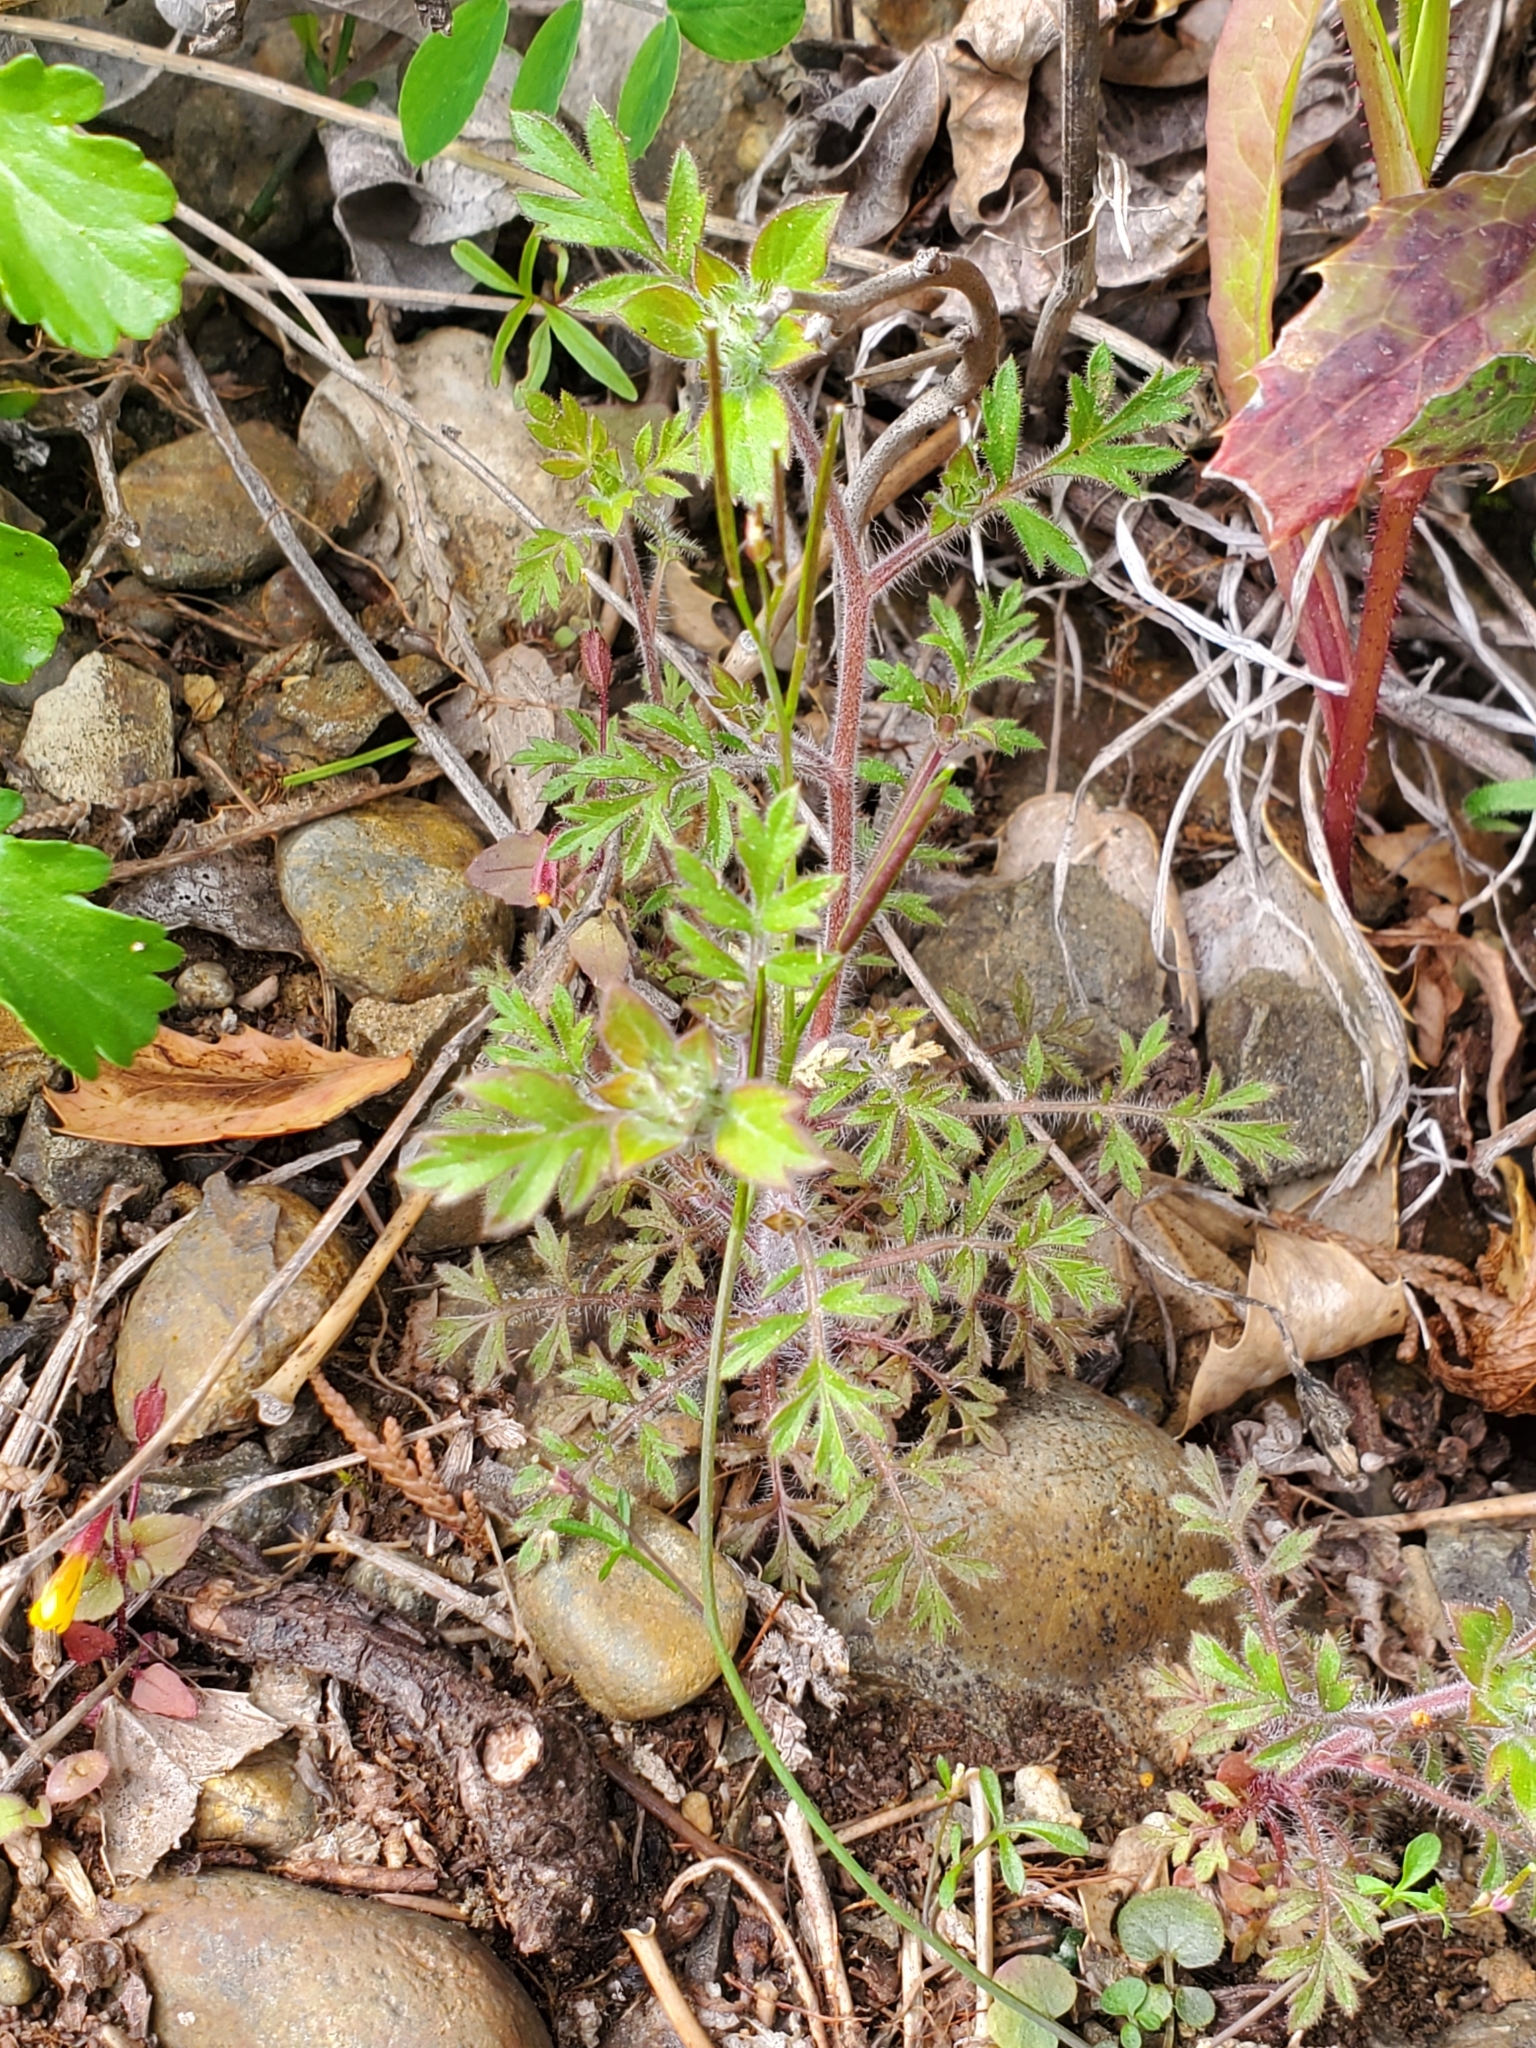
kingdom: Plantae
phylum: Tracheophyta
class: Magnoliopsida
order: Ericales
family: Polemoniaceae
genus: Collomia
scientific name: Collomia heterophylla
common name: Variable-leaved collomia
